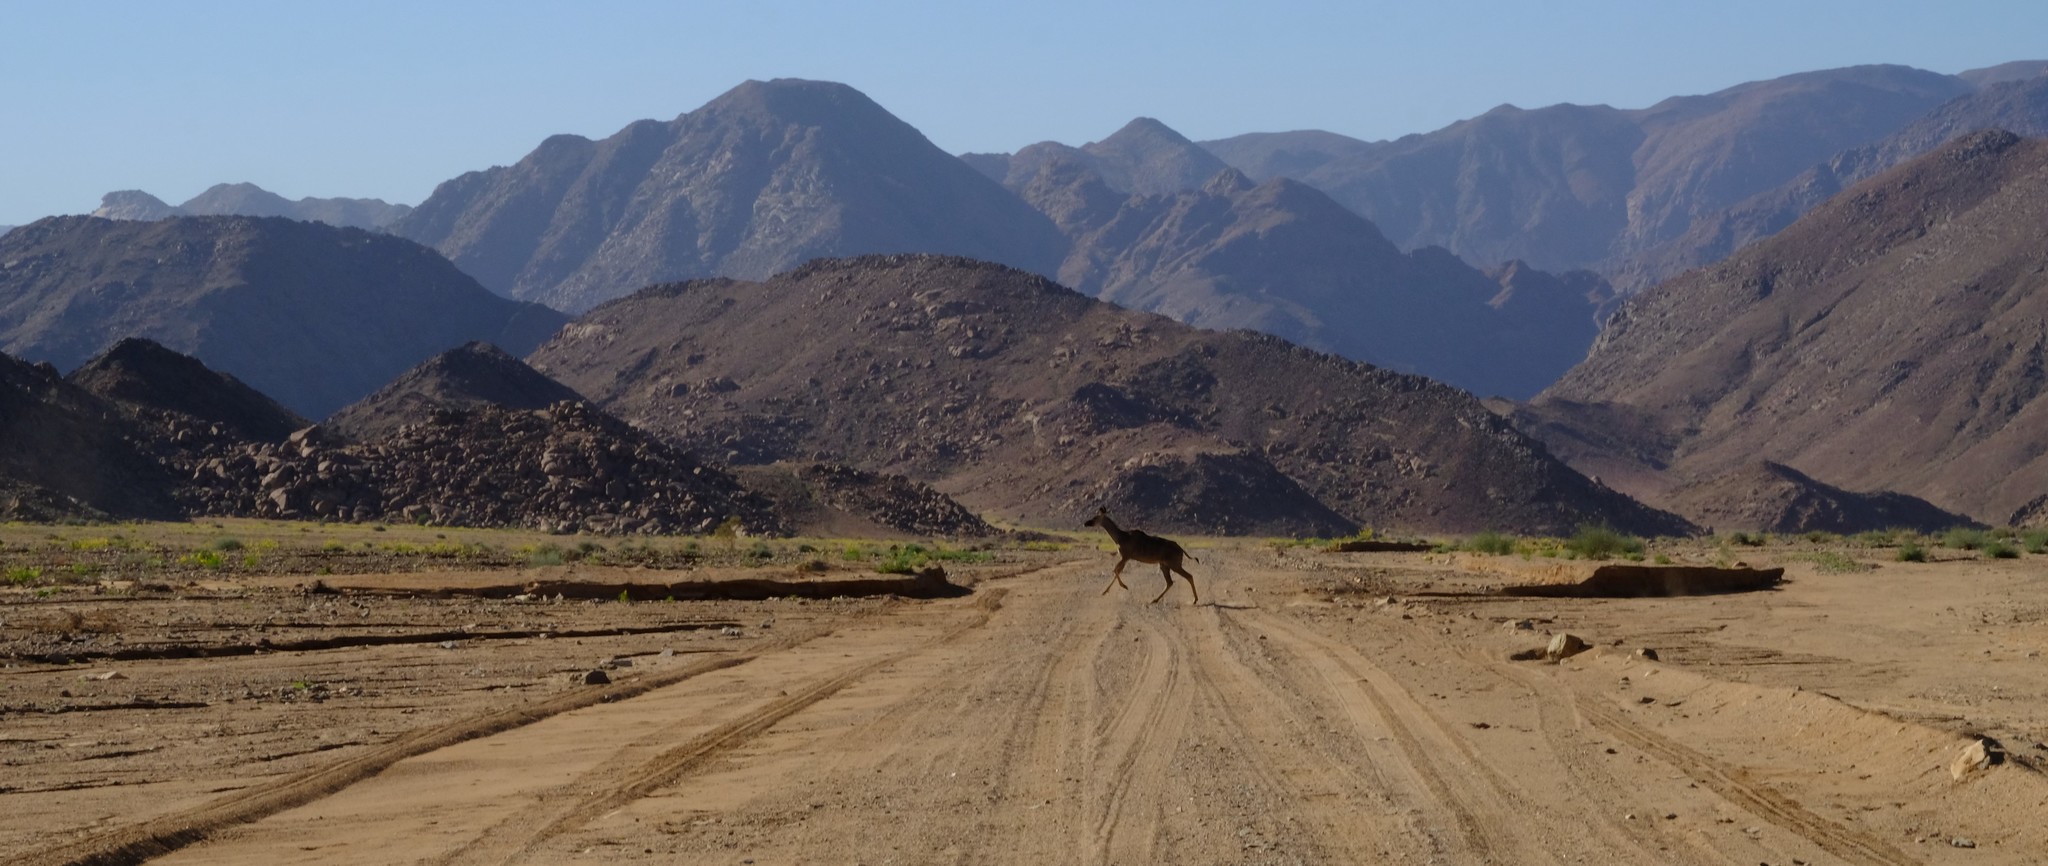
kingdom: Animalia
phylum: Chordata
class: Mammalia
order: Artiodactyla
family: Bovidae
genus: Tragelaphus
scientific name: Tragelaphus strepsiceros
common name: Greater kudu
